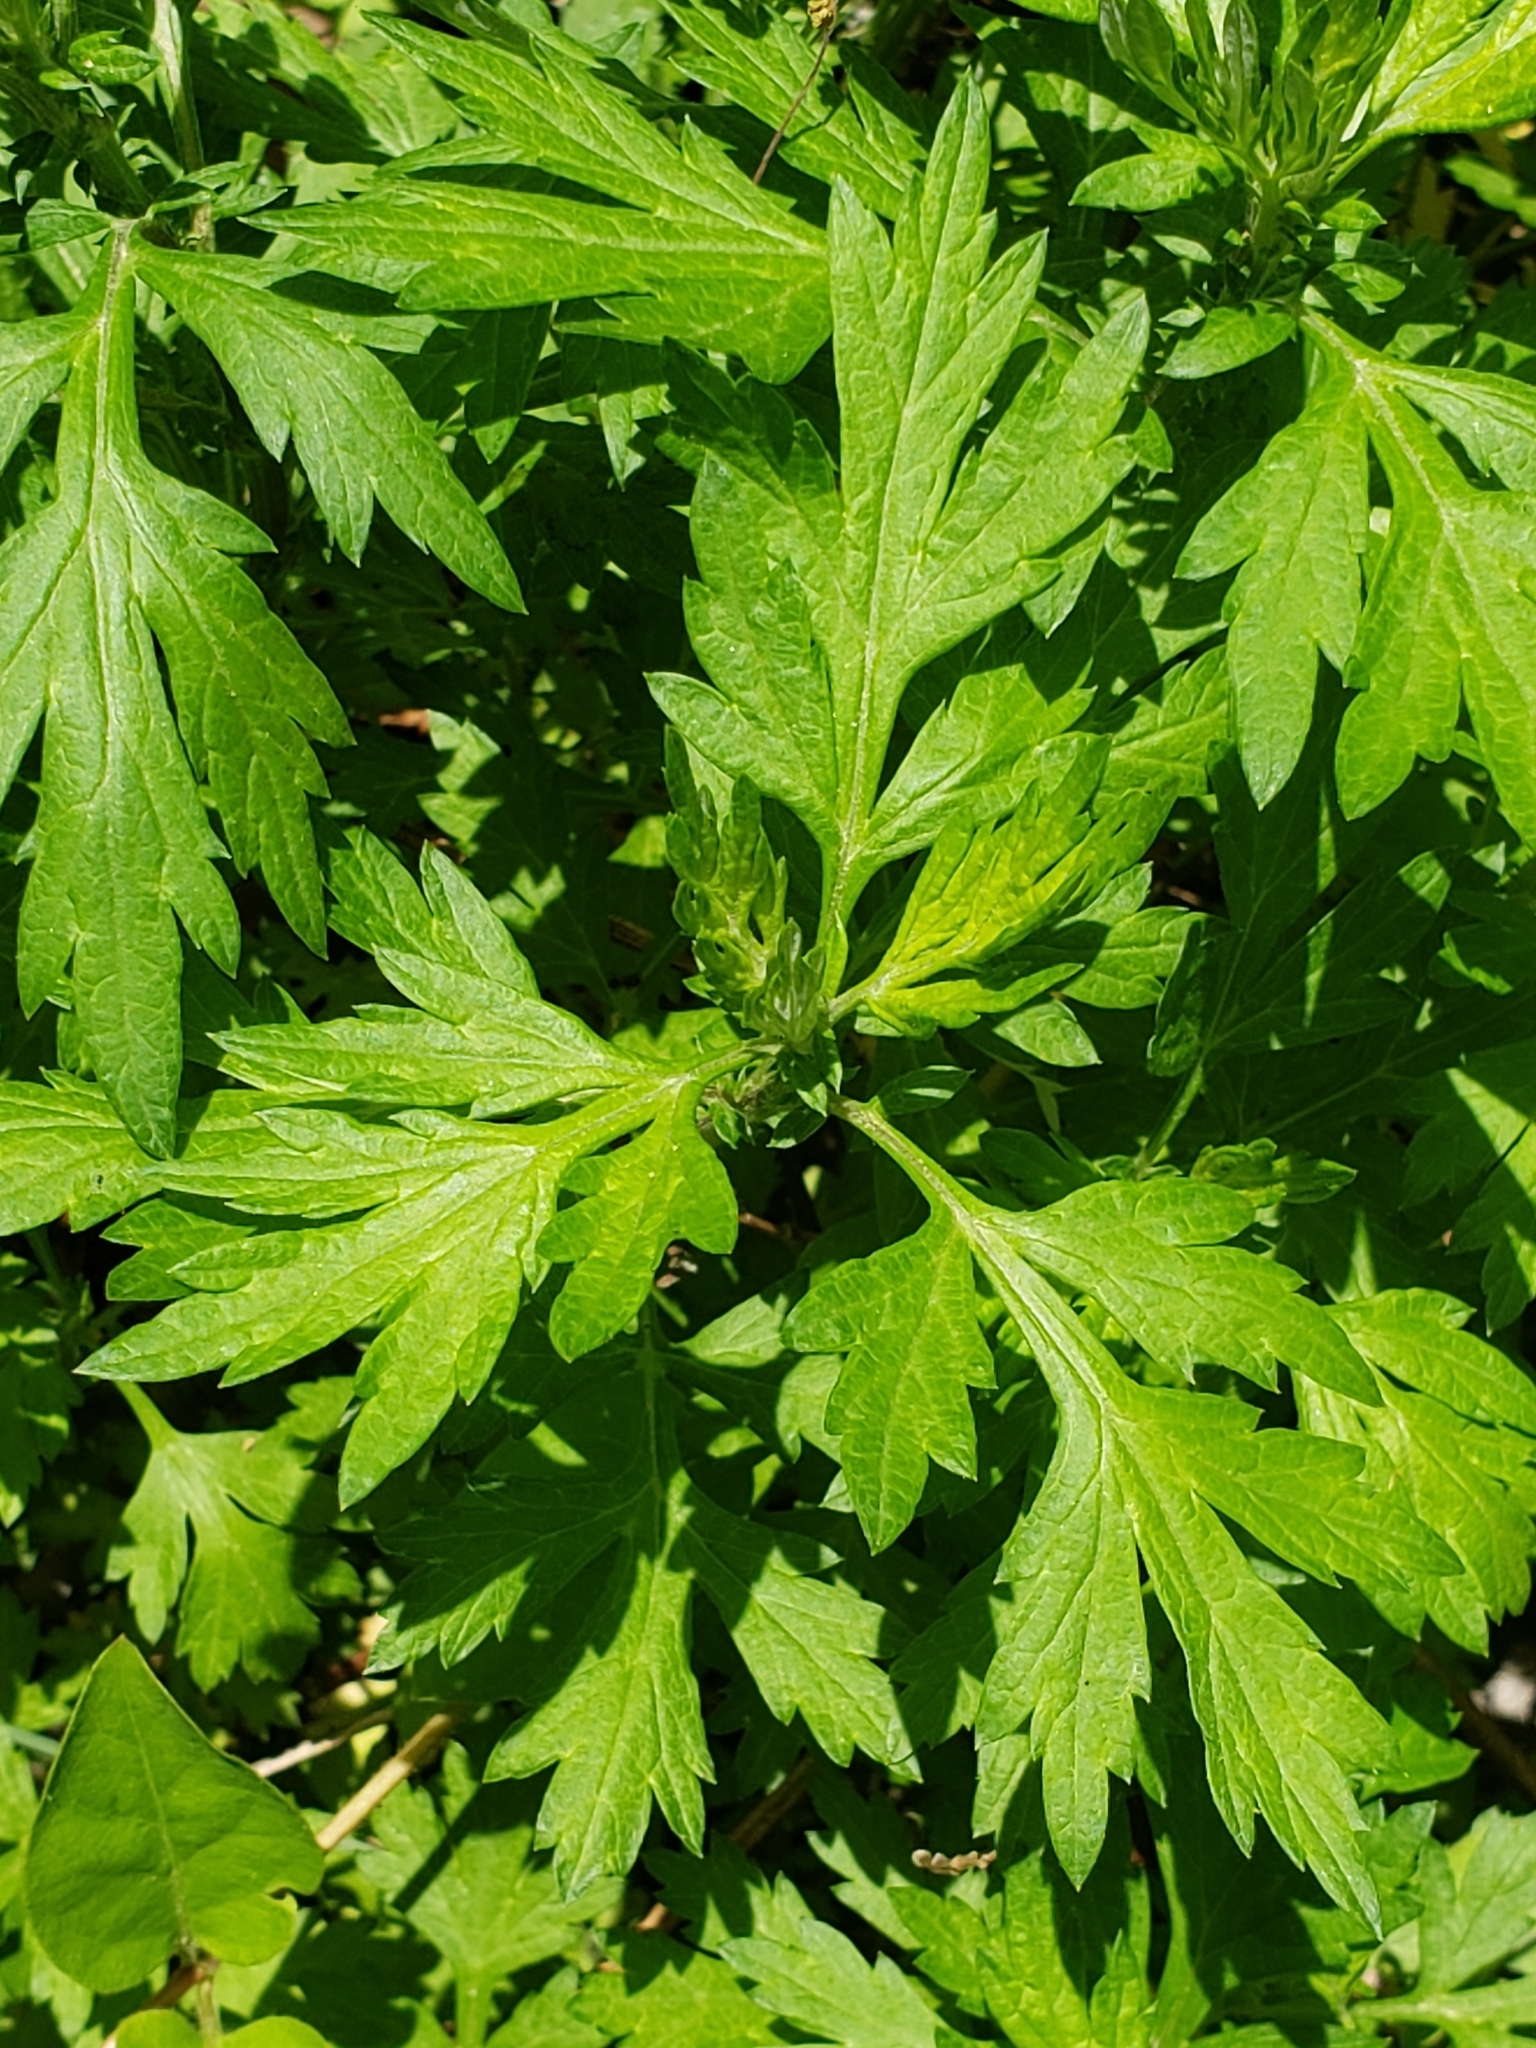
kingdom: Plantae
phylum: Tracheophyta
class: Magnoliopsida
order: Asterales
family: Asteraceae
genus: Artemisia
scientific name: Artemisia vulgaris
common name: Mugwort
